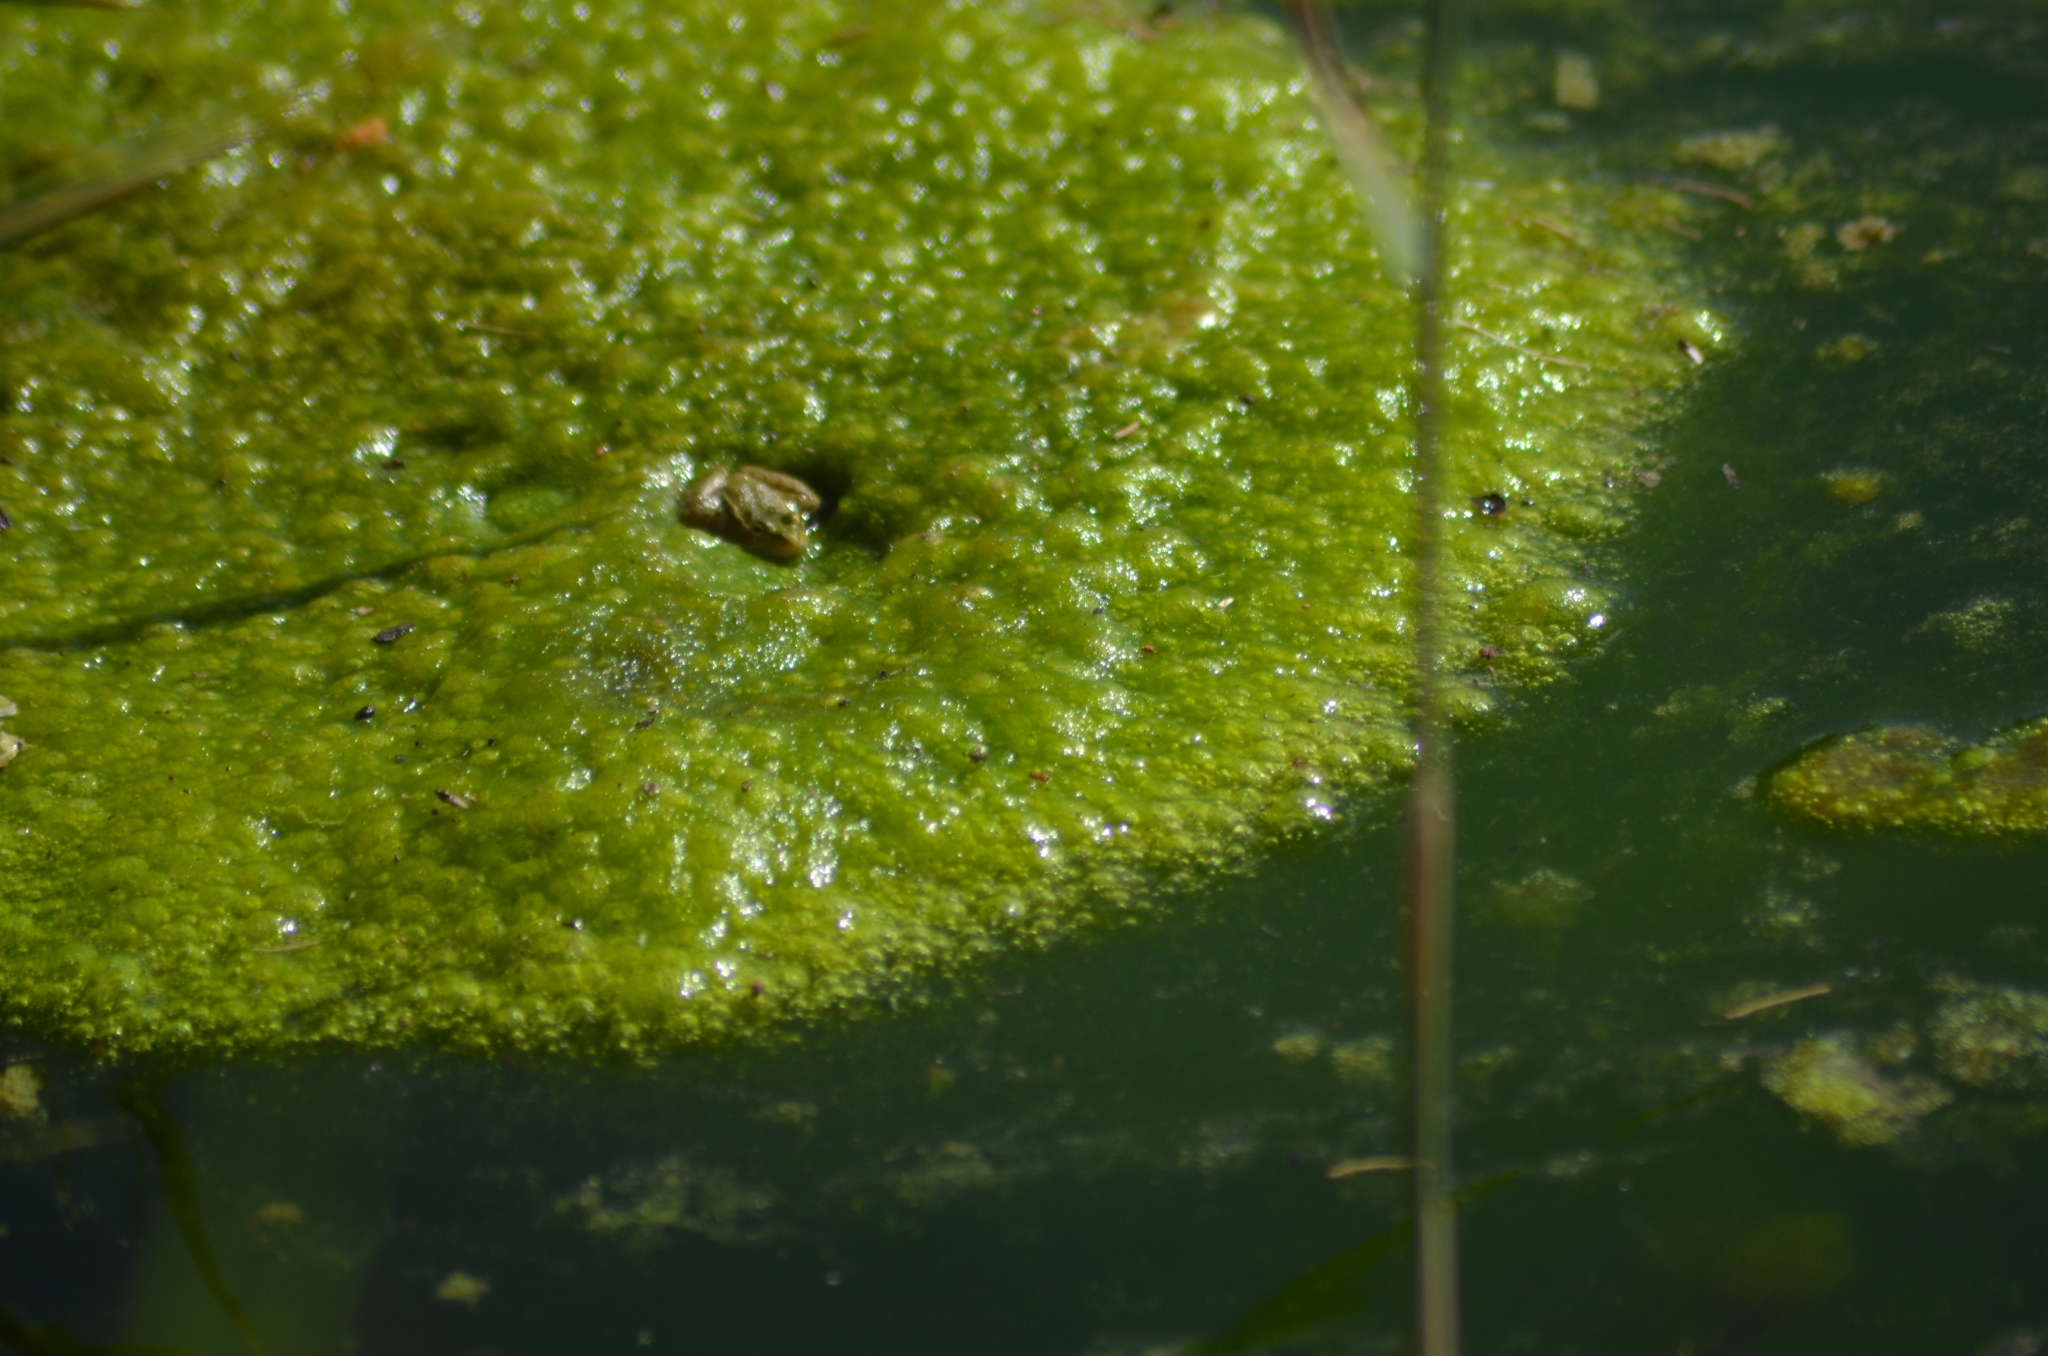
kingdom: Animalia
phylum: Chordata
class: Amphibia
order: Anura
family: Ranidae
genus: Pelophylax
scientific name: Pelophylax perezi
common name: Perez's frog
